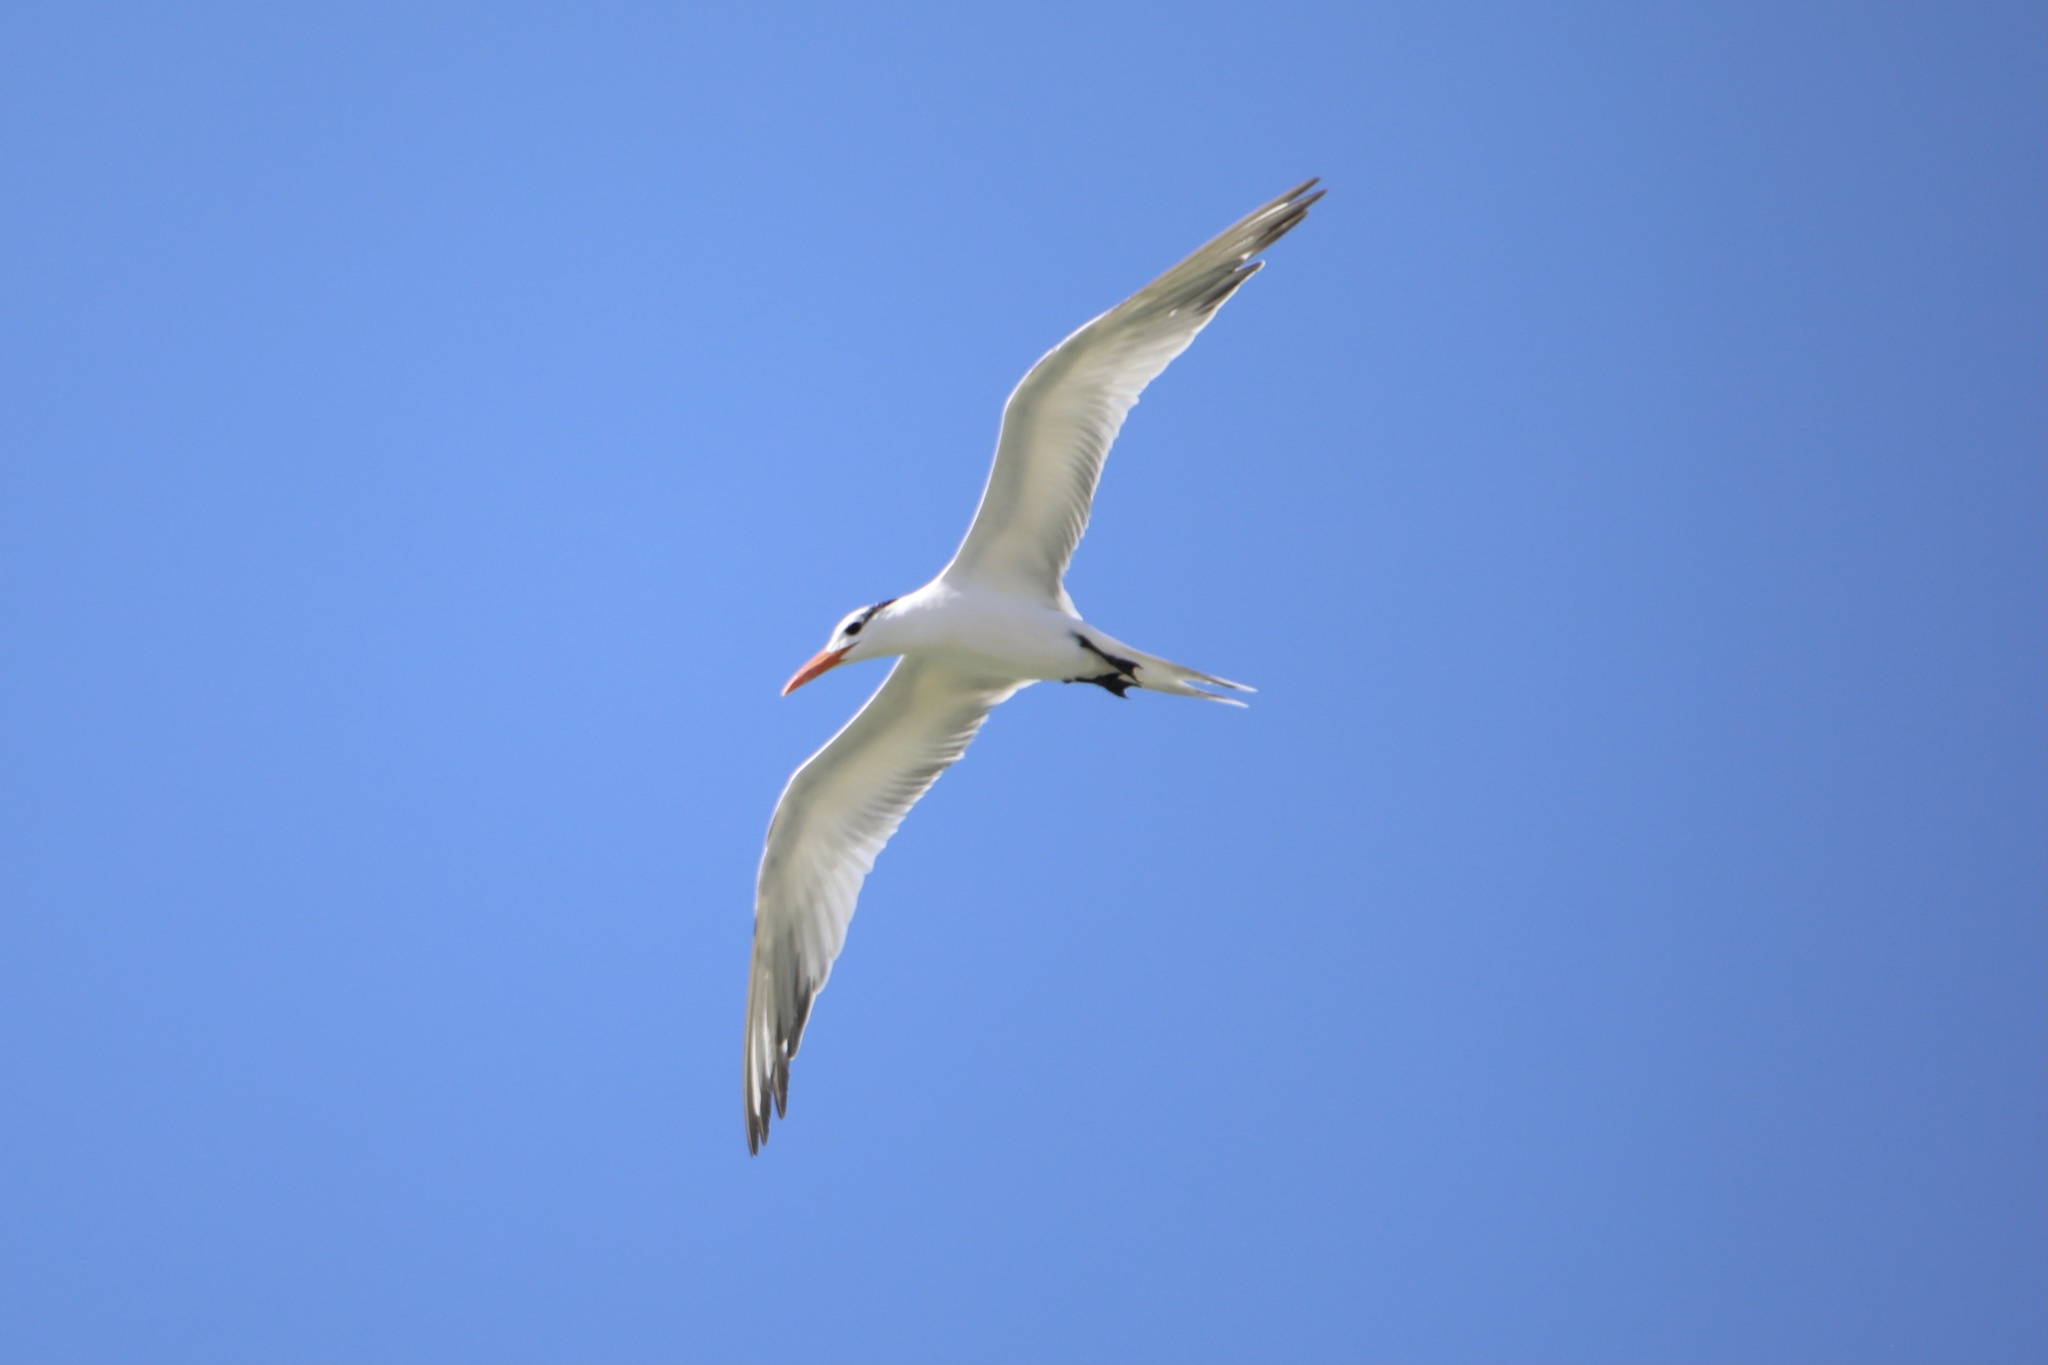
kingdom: Animalia
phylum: Chordata
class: Aves
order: Charadriiformes
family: Laridae
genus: Thalasseus
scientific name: Thalasseus maximus
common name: Royal tern
